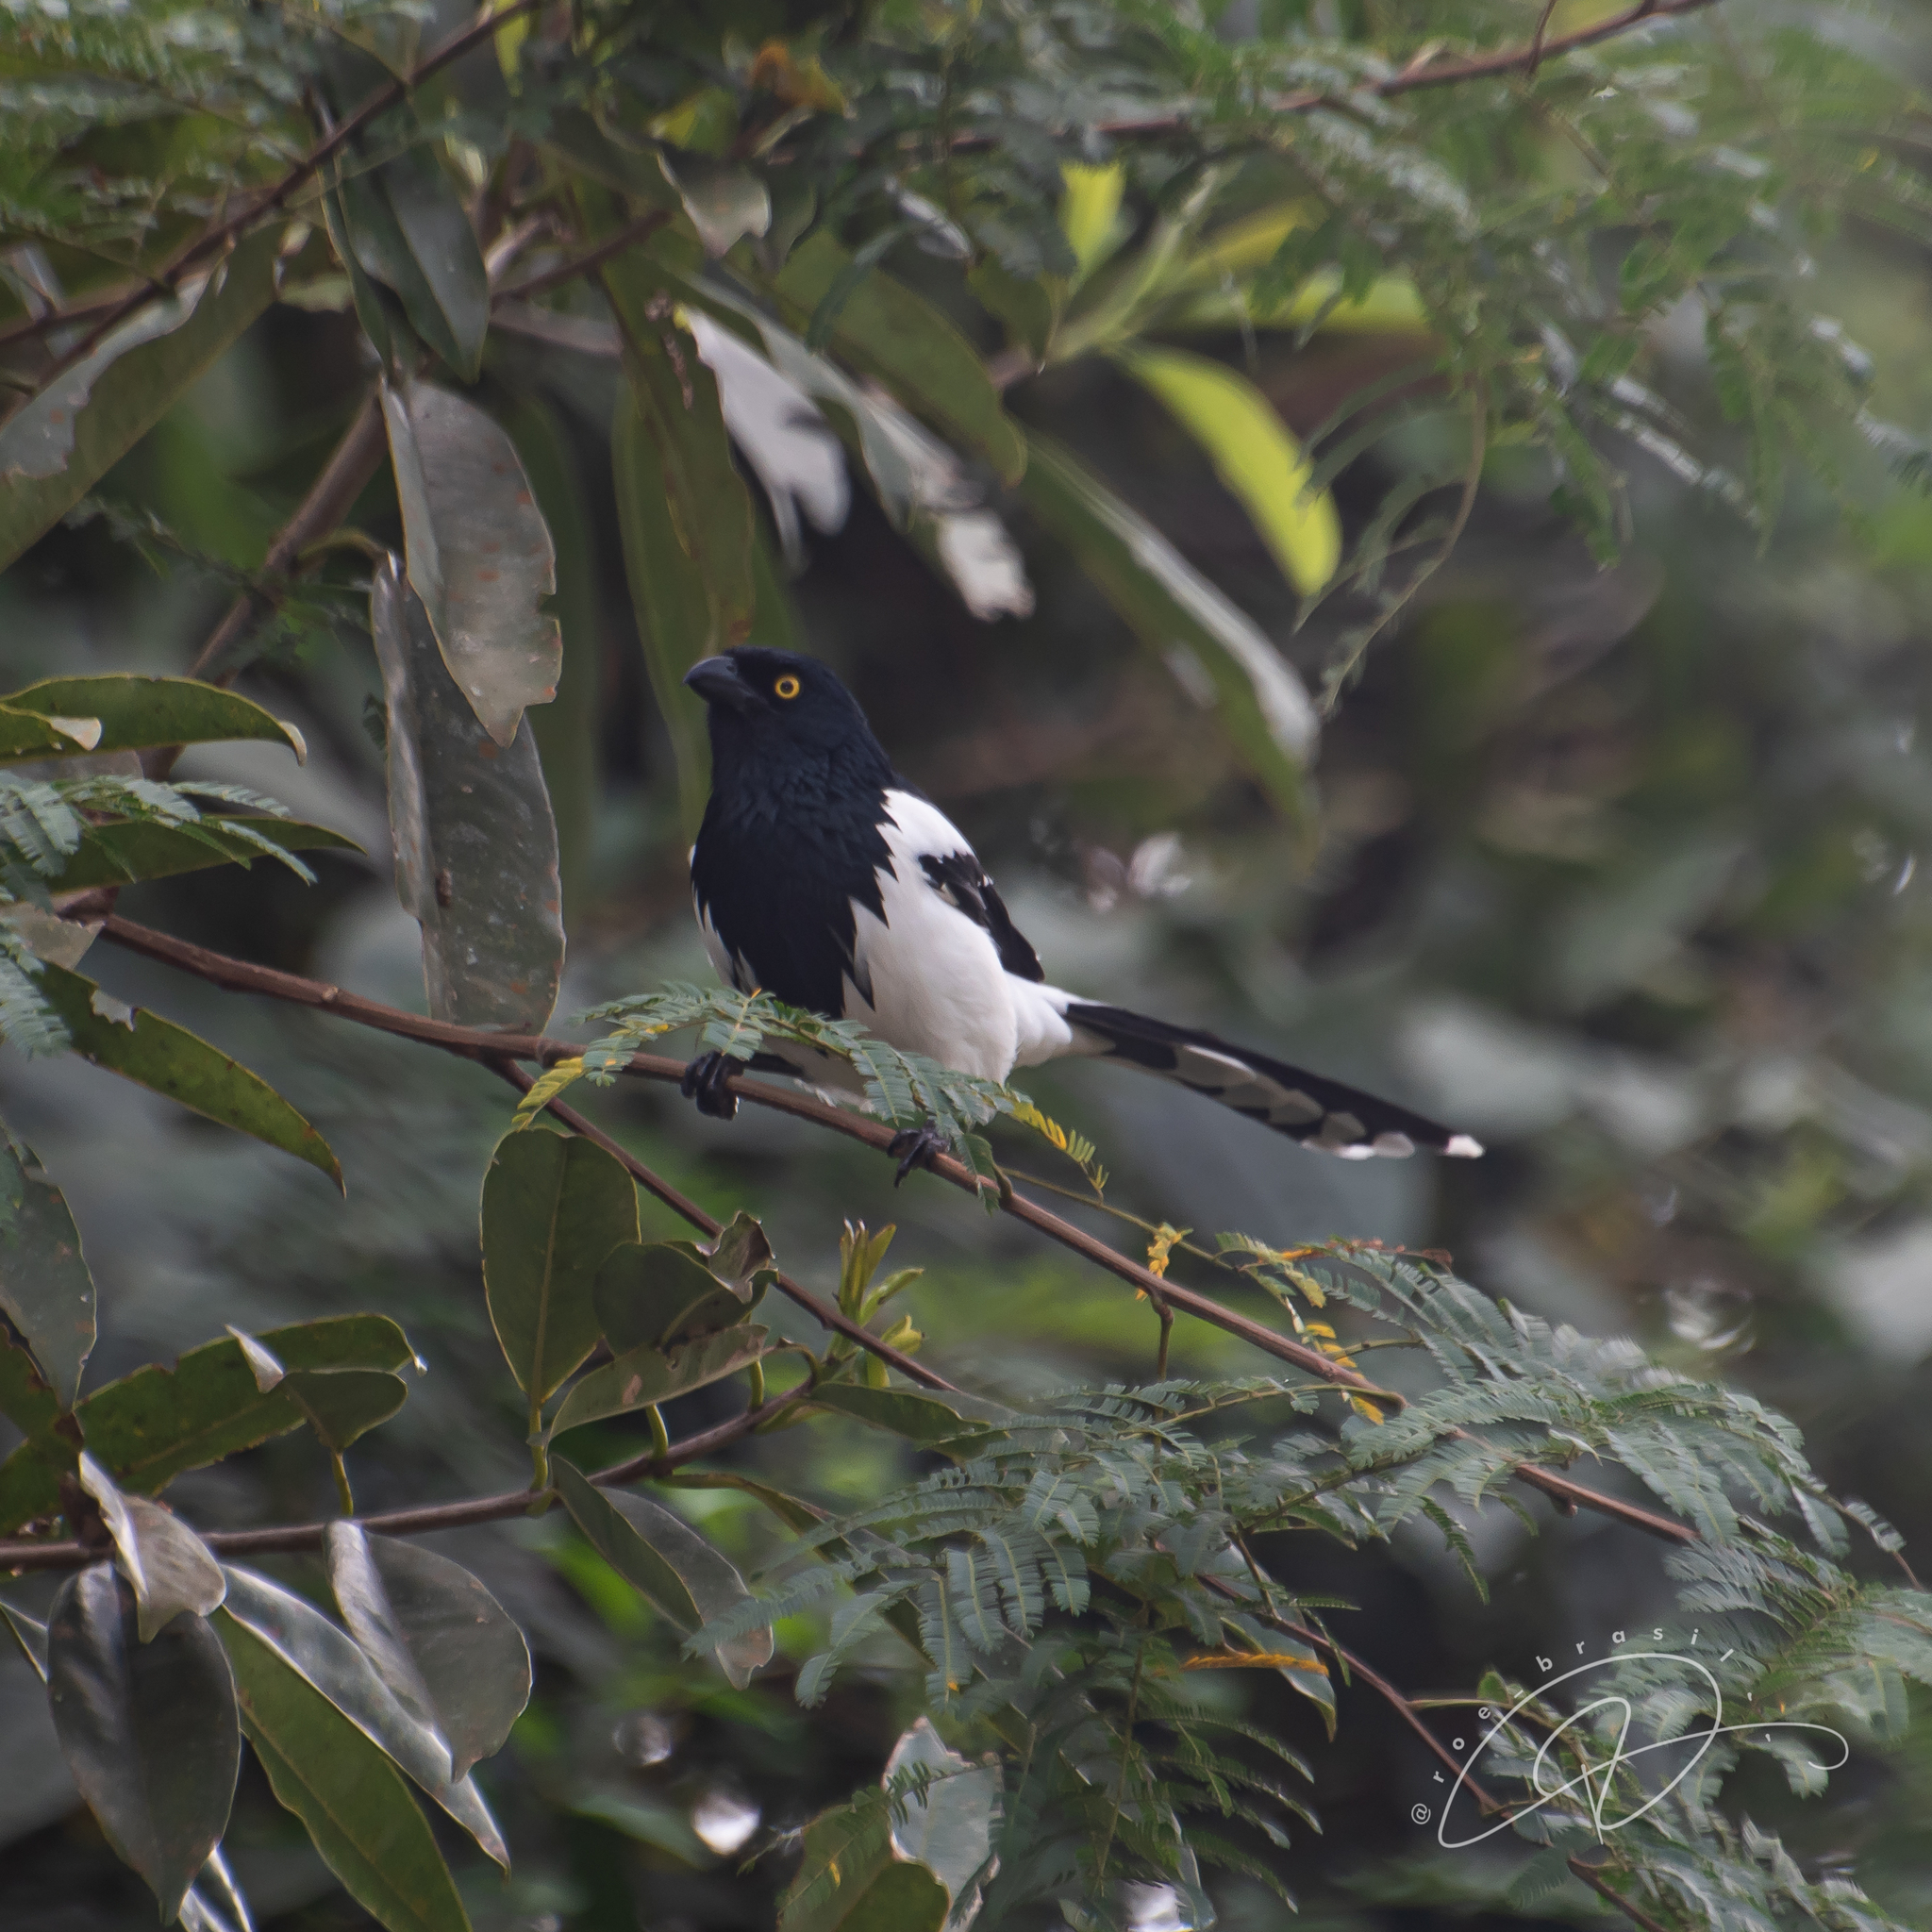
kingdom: Animalia
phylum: Chordata
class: Aves
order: Passeriformes
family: Thraupidae
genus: Cissopis
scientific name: Cissopis leverianus
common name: Magpie tanager
